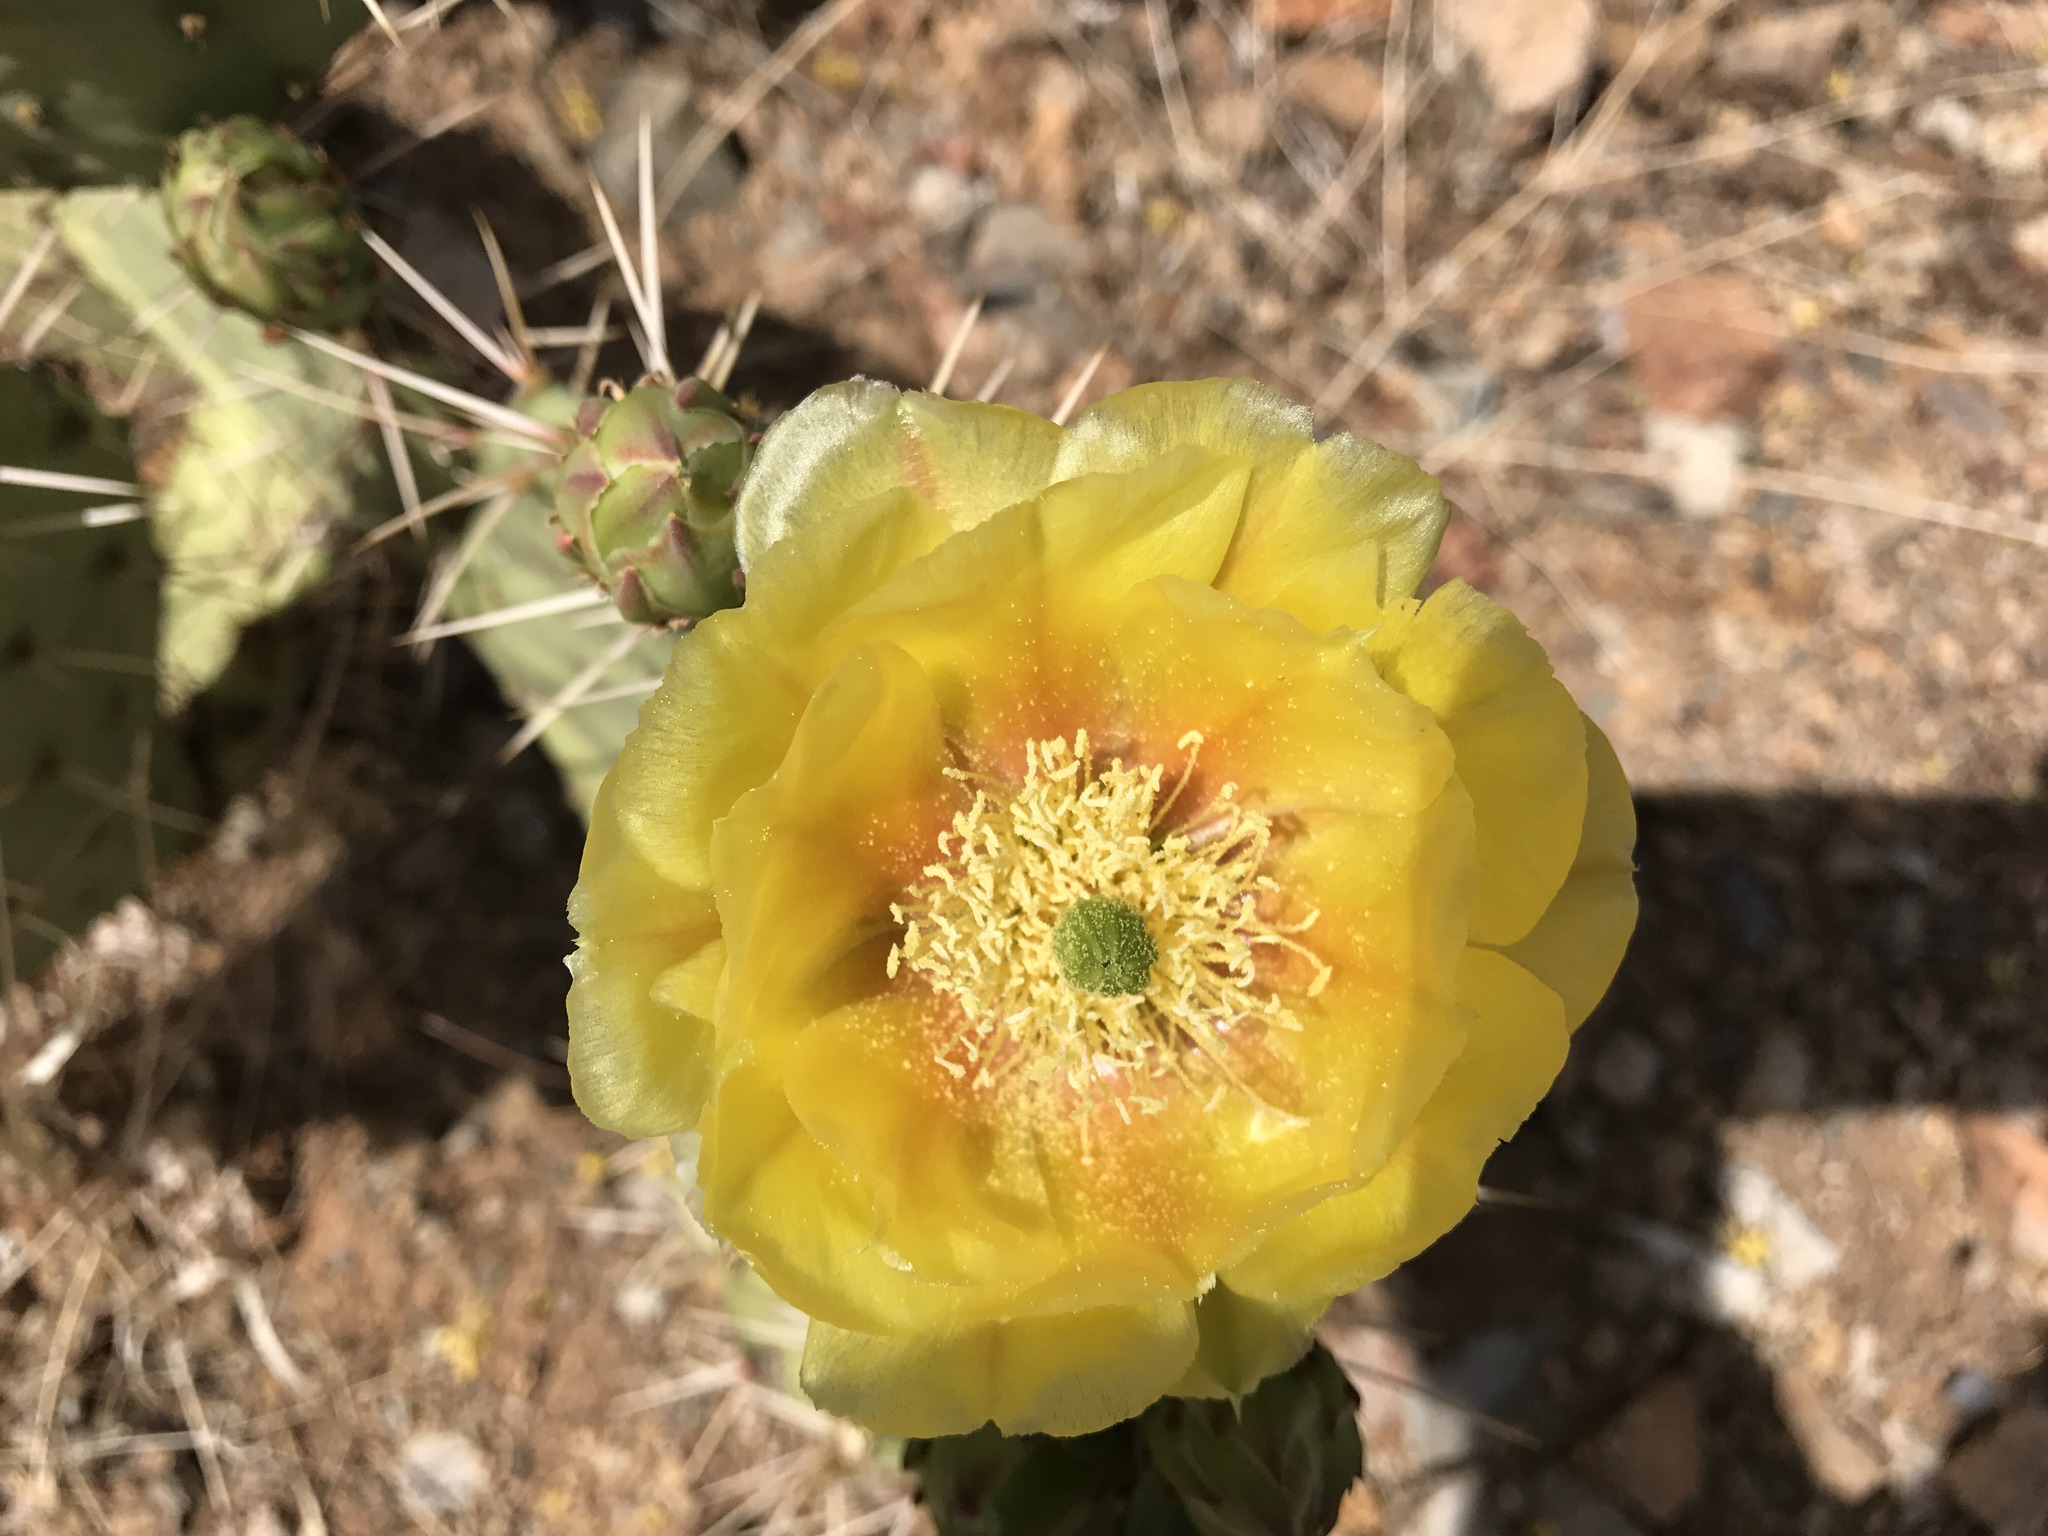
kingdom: Plantae
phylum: Tracheophyta
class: Magnoliopsida
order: Caryophyllales
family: Cactaceae
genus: Opuntia
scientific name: Opuntia engelmannii
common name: Cactus-apple
